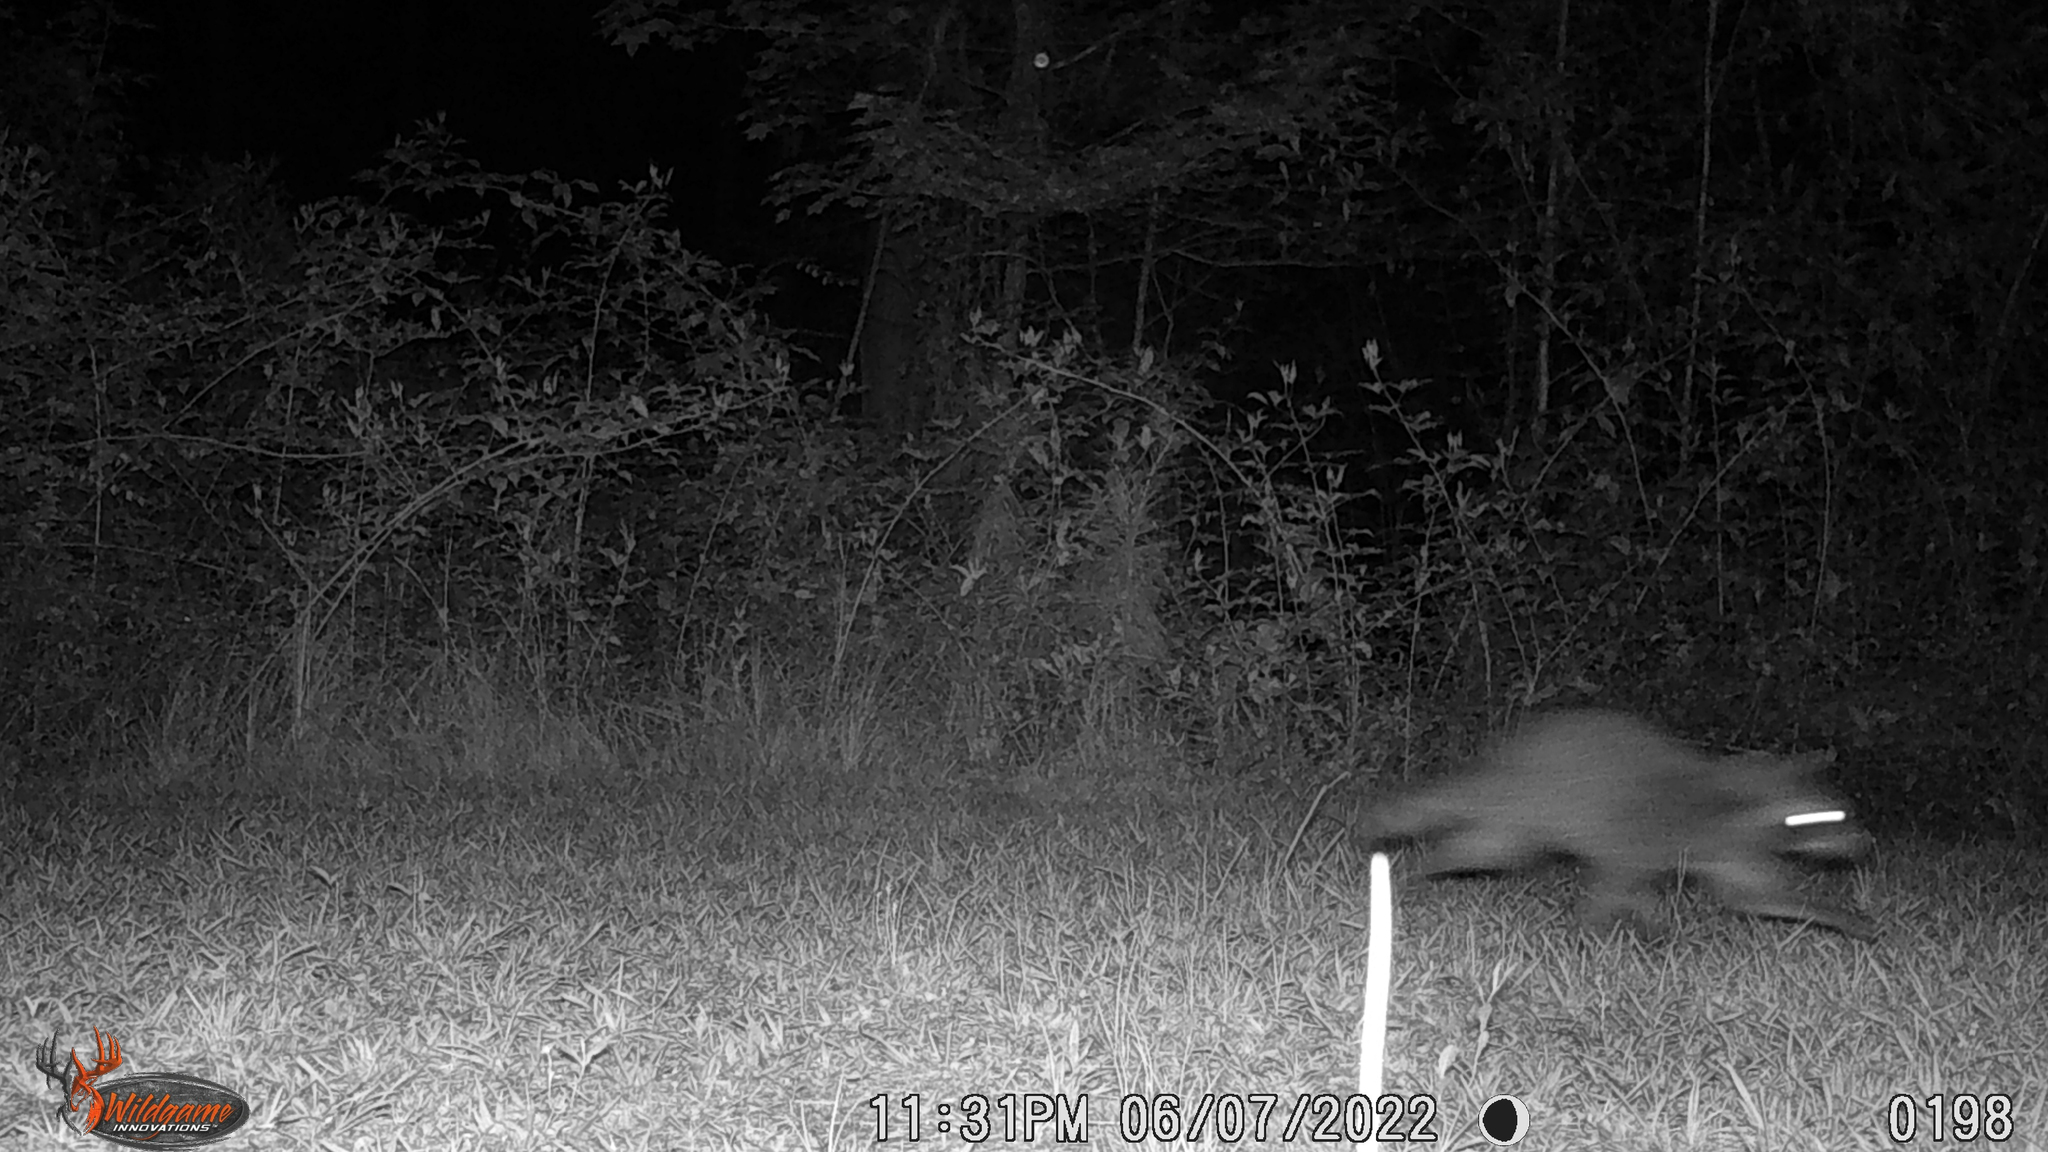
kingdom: Animalia
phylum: Chordata
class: Mammalia
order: Carnivora
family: Procyonidae
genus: Procyon
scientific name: Procyon lotor
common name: Raccoon
